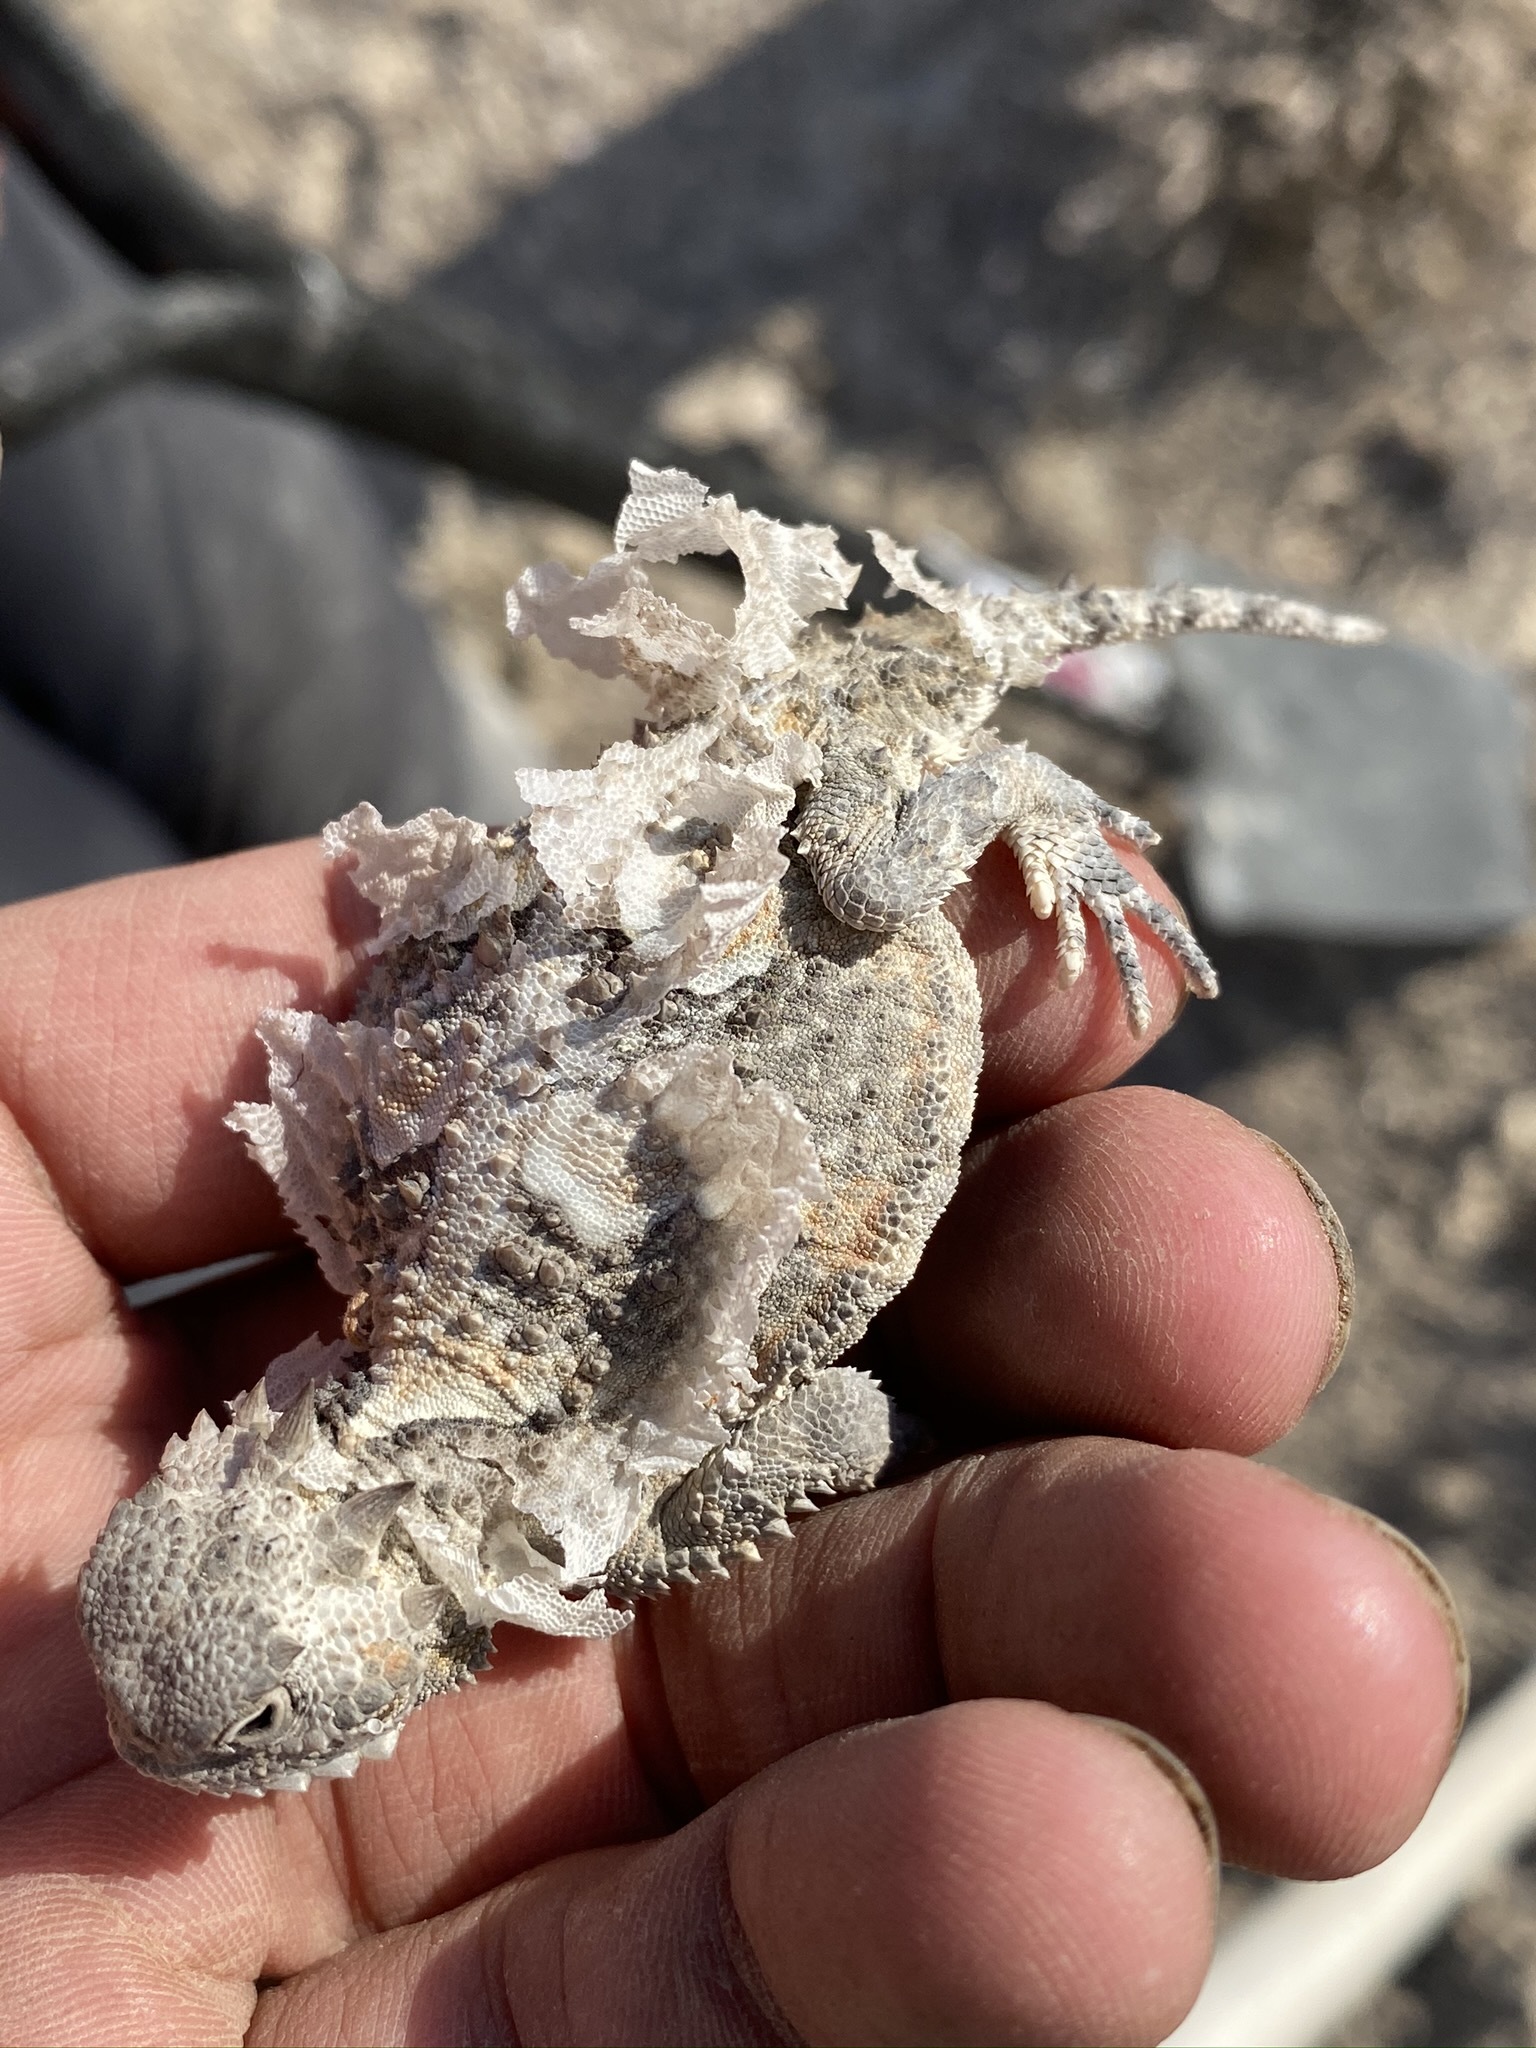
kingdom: Animalia
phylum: Chordata
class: Squamata
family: Phrynosomatidae
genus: Phrynosoma
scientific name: Phrynosoma platyrhinos
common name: Desert horned lizard
